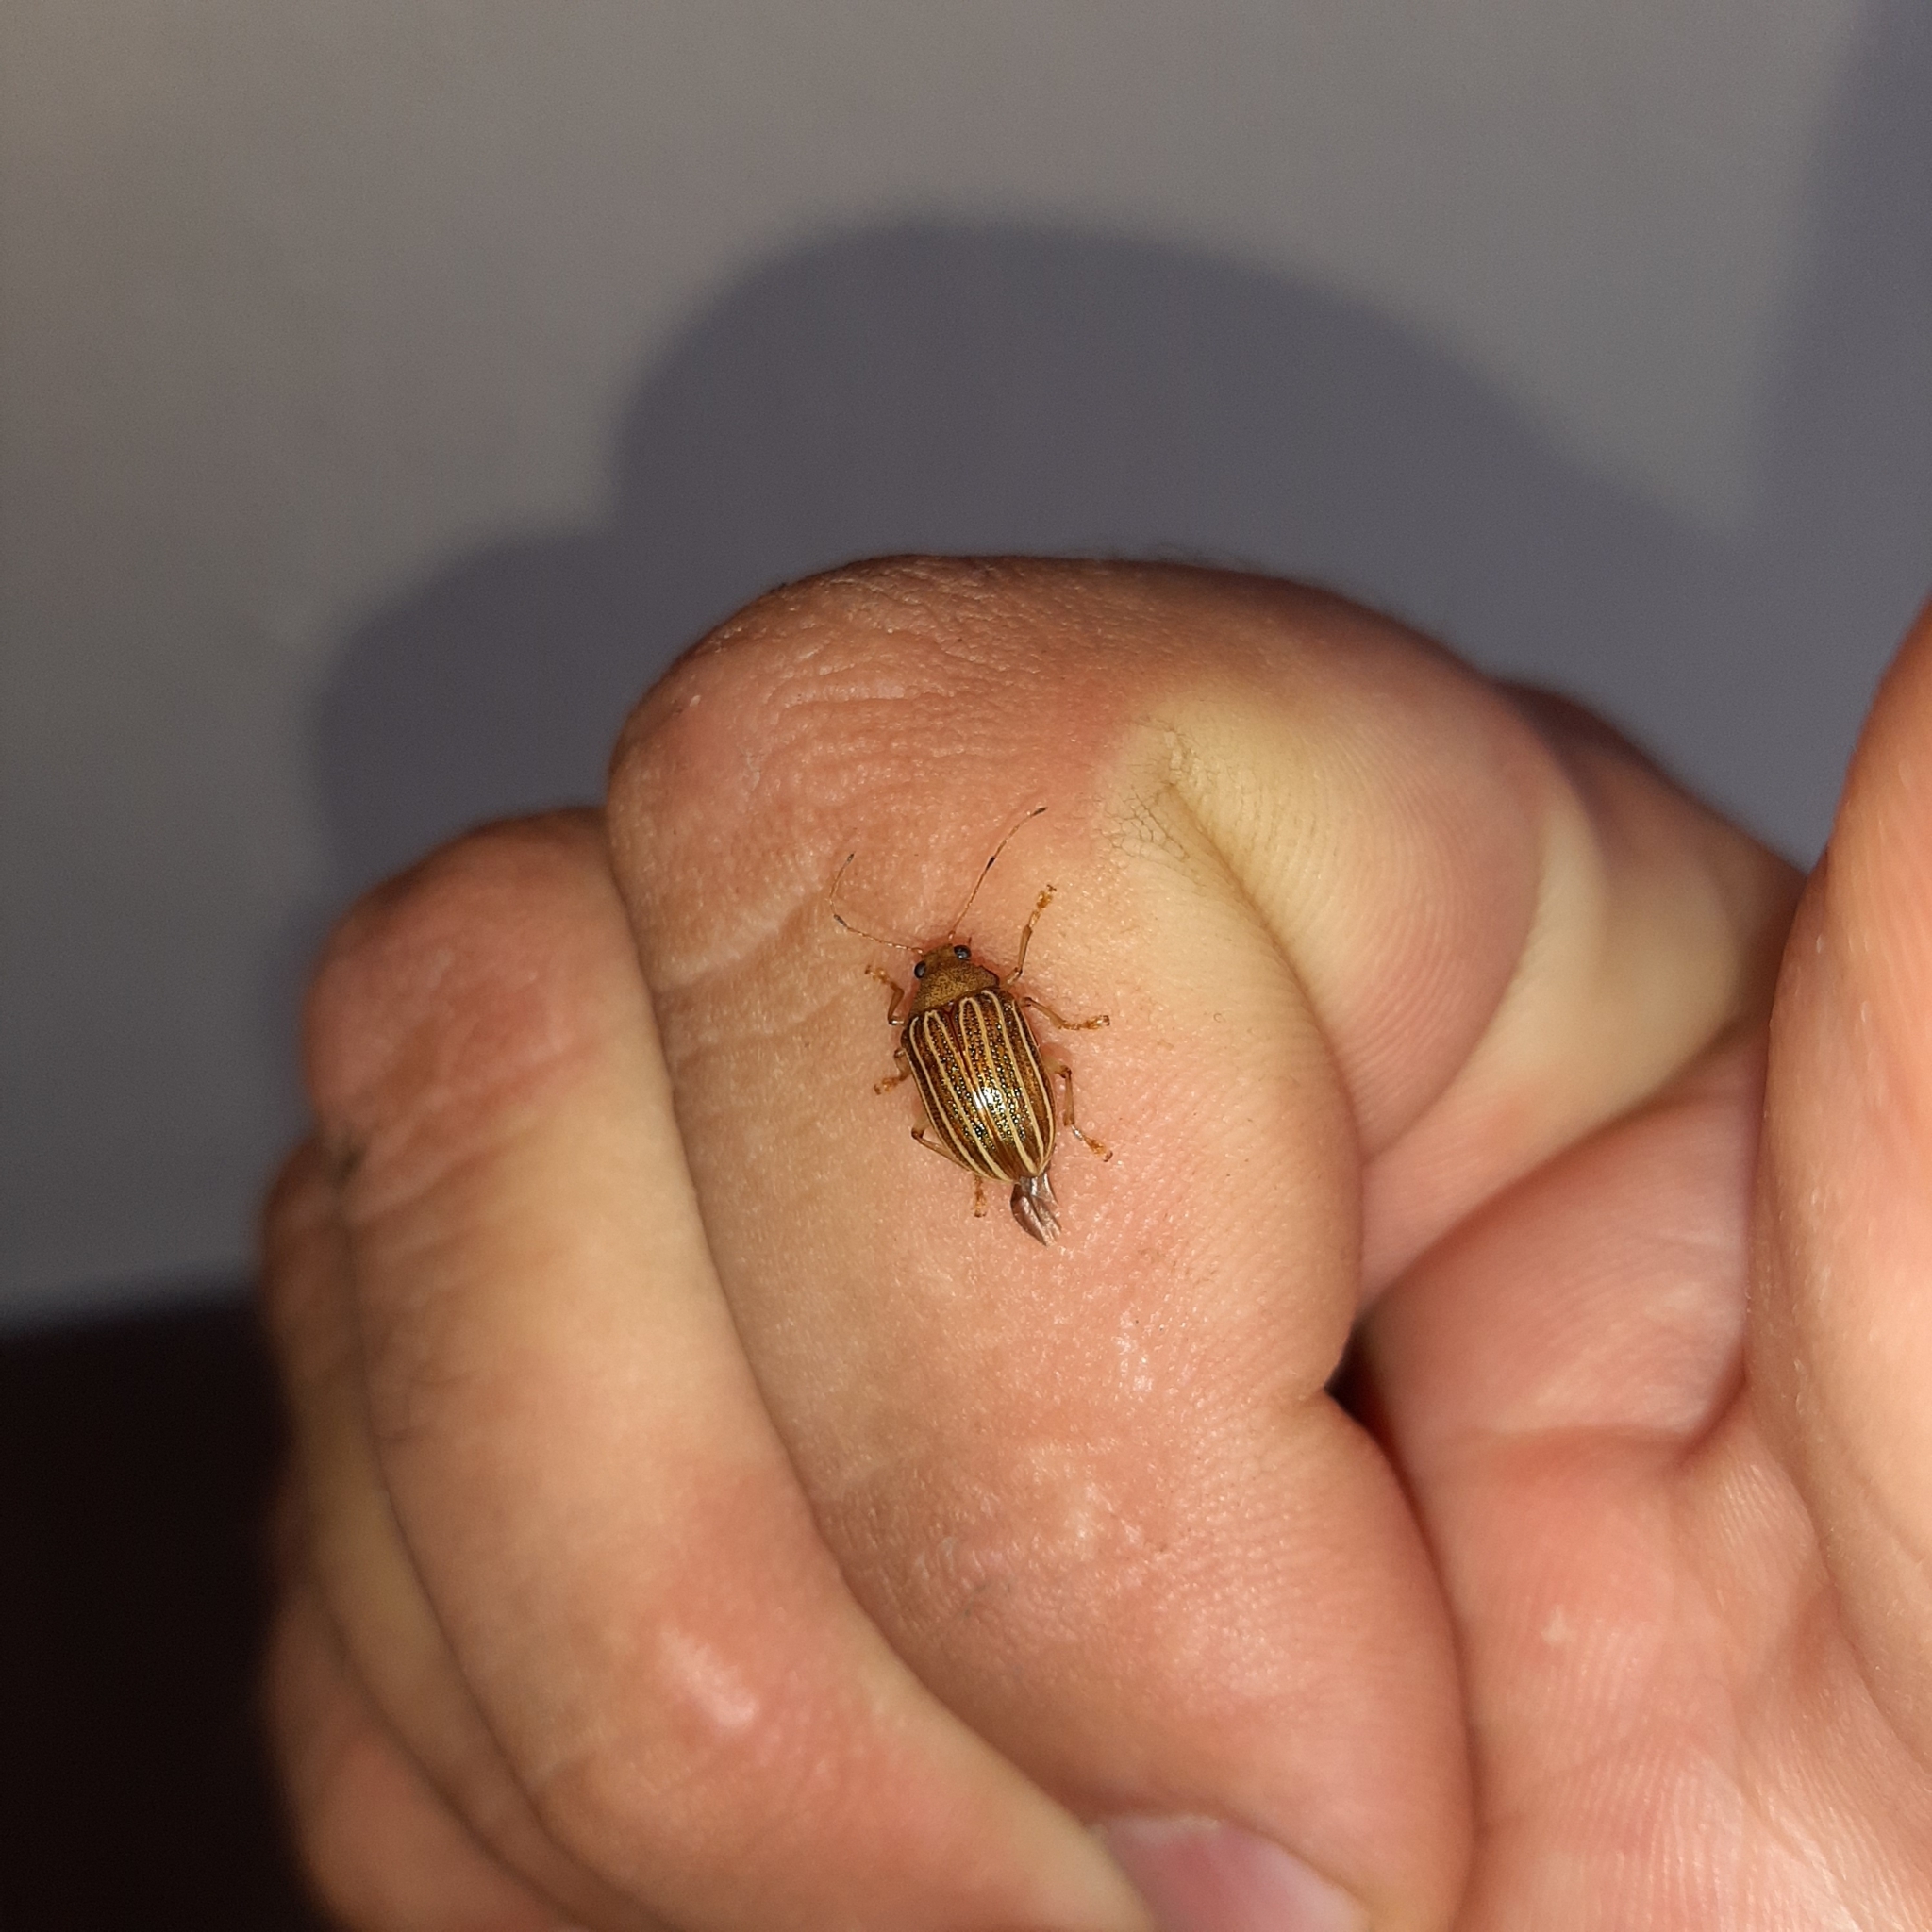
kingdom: Animalia
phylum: Arthropoda
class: Insecta
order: Coleoptera
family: Chrysomelidae
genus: Colaspis
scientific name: Colaspis
